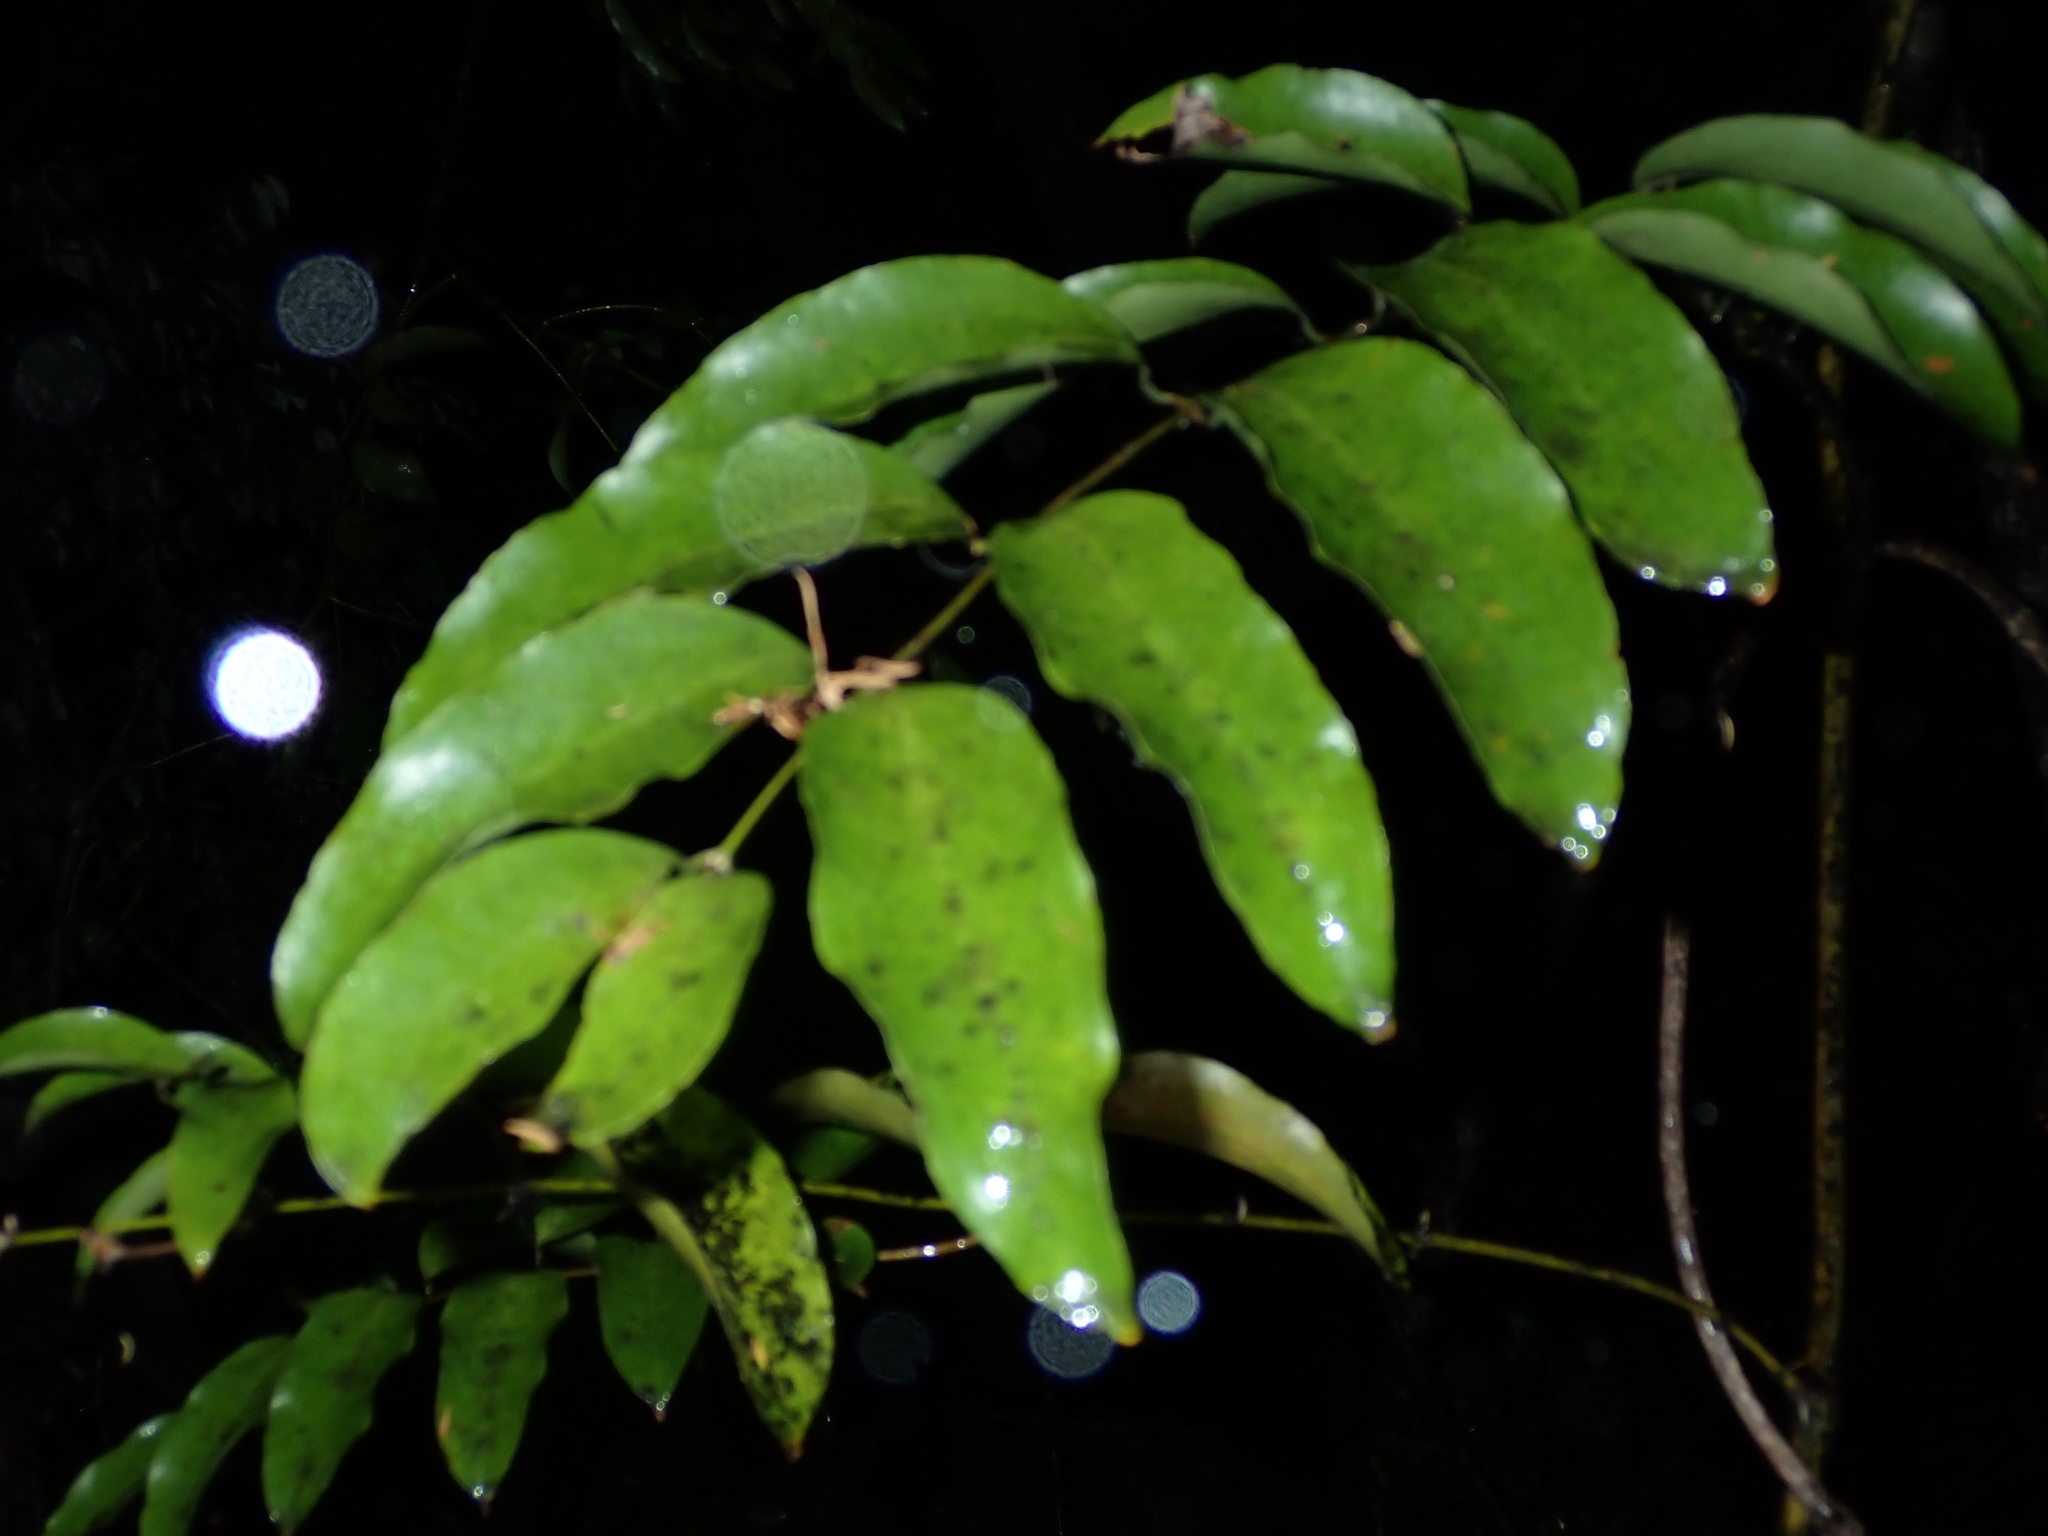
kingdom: Plantae
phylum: Tracheophyta
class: Liliopsida
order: Liliales
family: Ripogonaceae
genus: Ripogonum
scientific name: Ripogonum scandens
